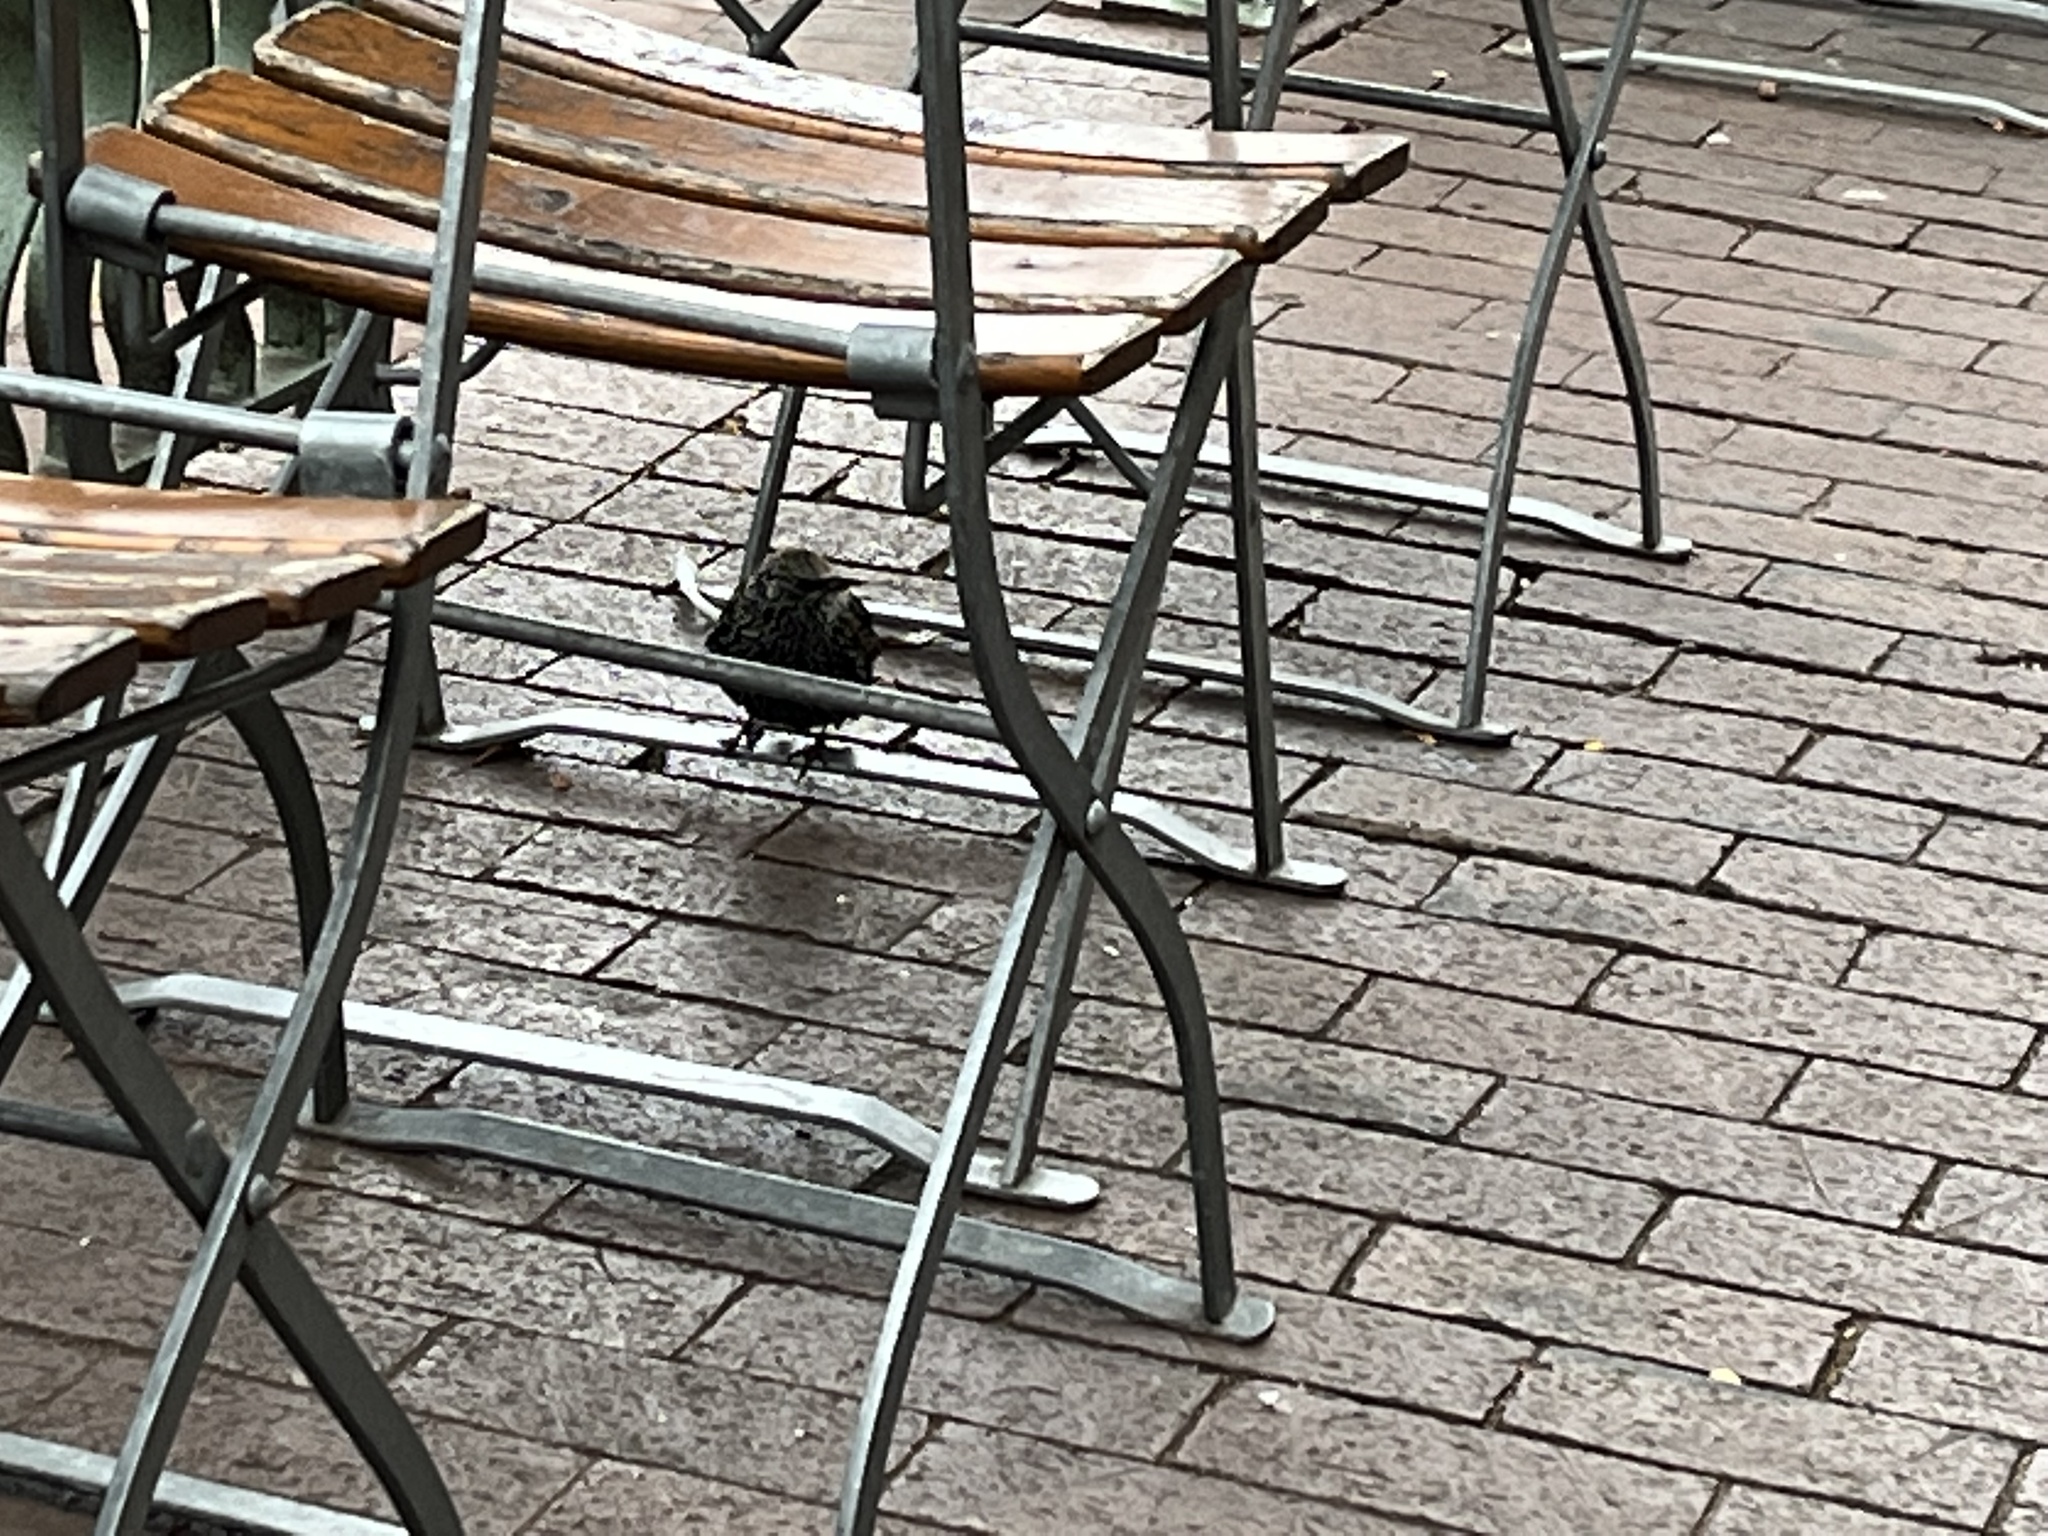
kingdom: Animalia
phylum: Chordata
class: Aves
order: Passeriformes
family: Sturnidae
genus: Sturnus
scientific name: Sturnus vulgaris
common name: Common starling
